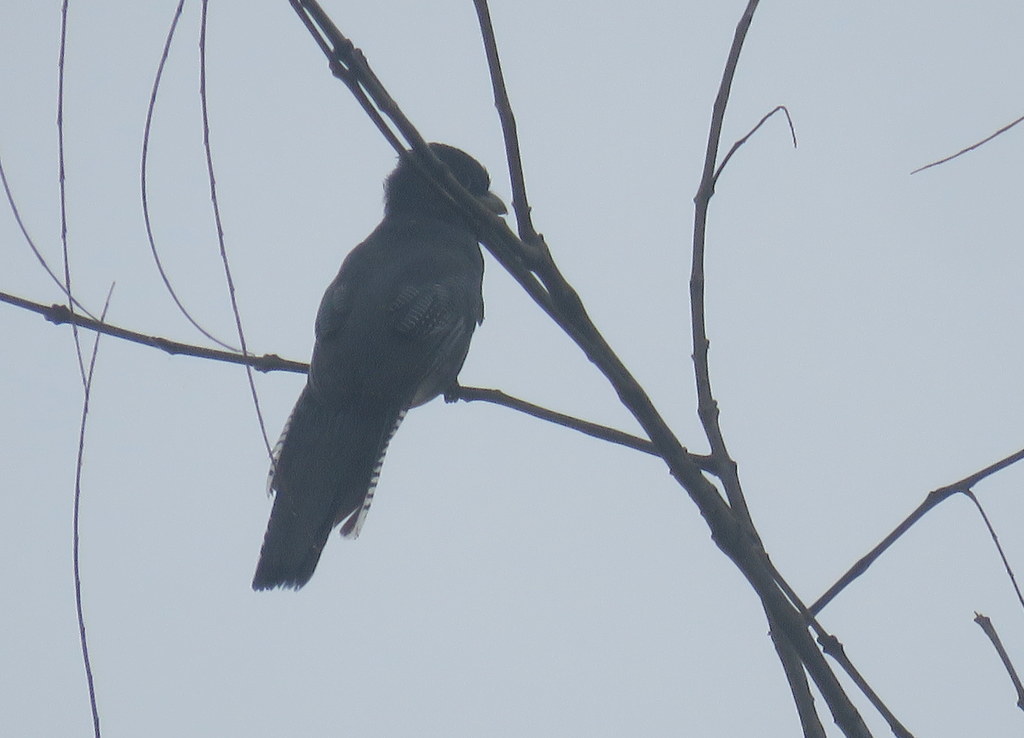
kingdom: Animalia
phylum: Chordata
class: Aves
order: Trogoniformes
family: Trogonidae
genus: Trogon
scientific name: Trogon curucui
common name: Blue-crowned trogon
